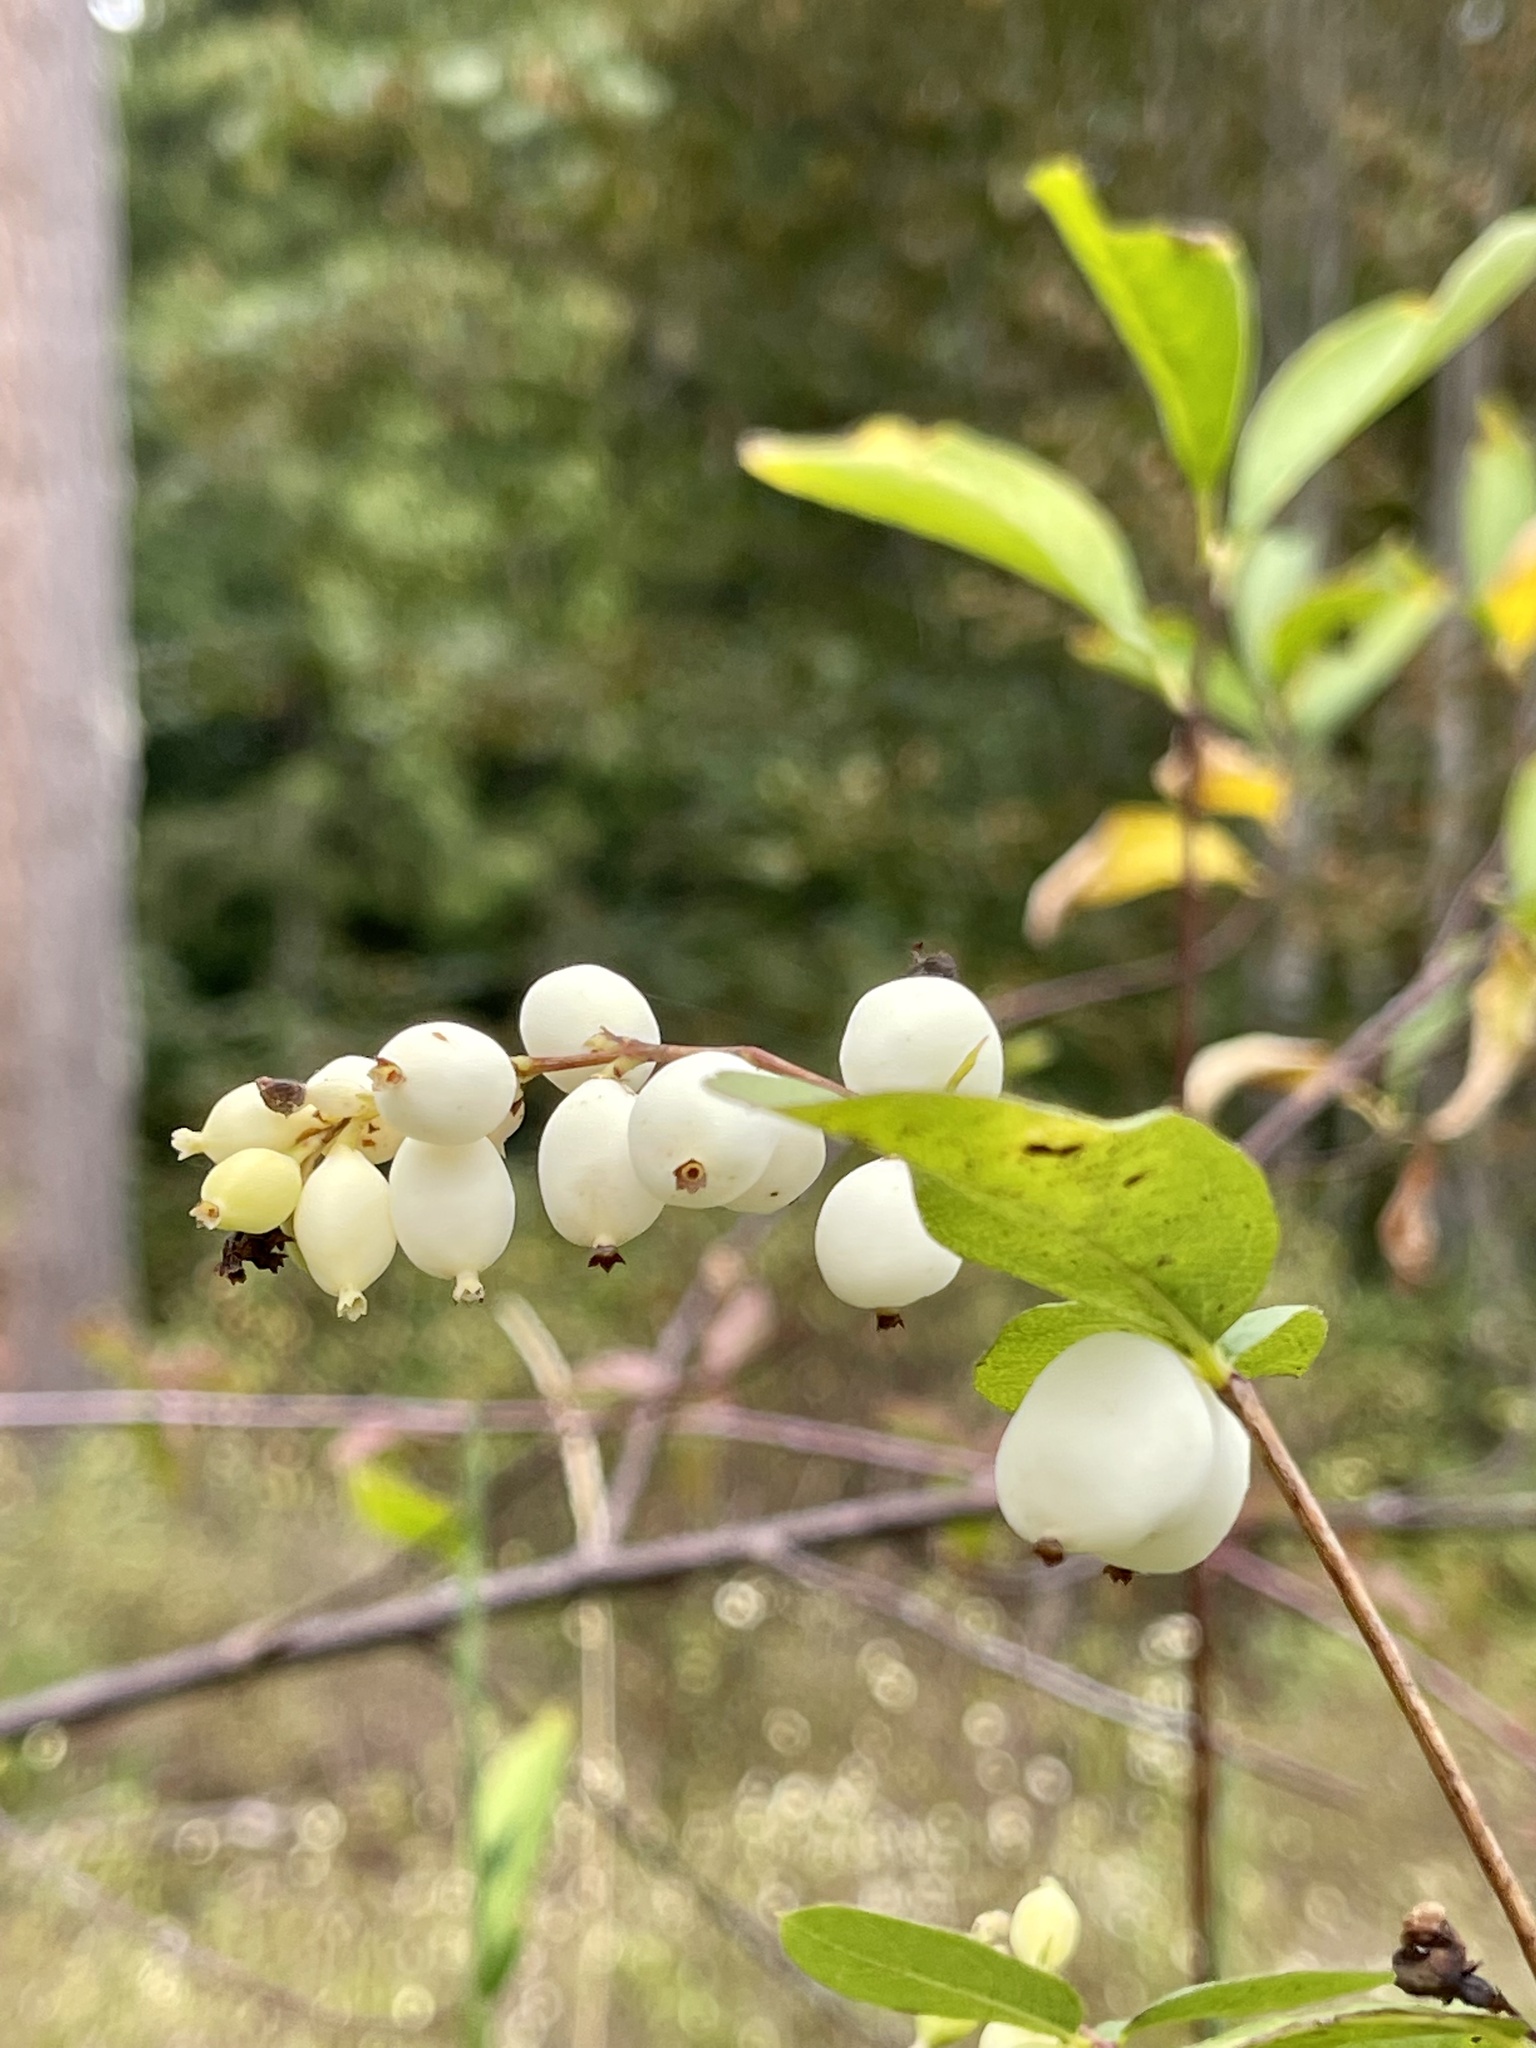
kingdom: Plantae
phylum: Tracheophyta
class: Magnoliopsida
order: Dipsacales
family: Caprifoliaceae
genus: Symphoricarpos
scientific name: Symphoricarpos albus
